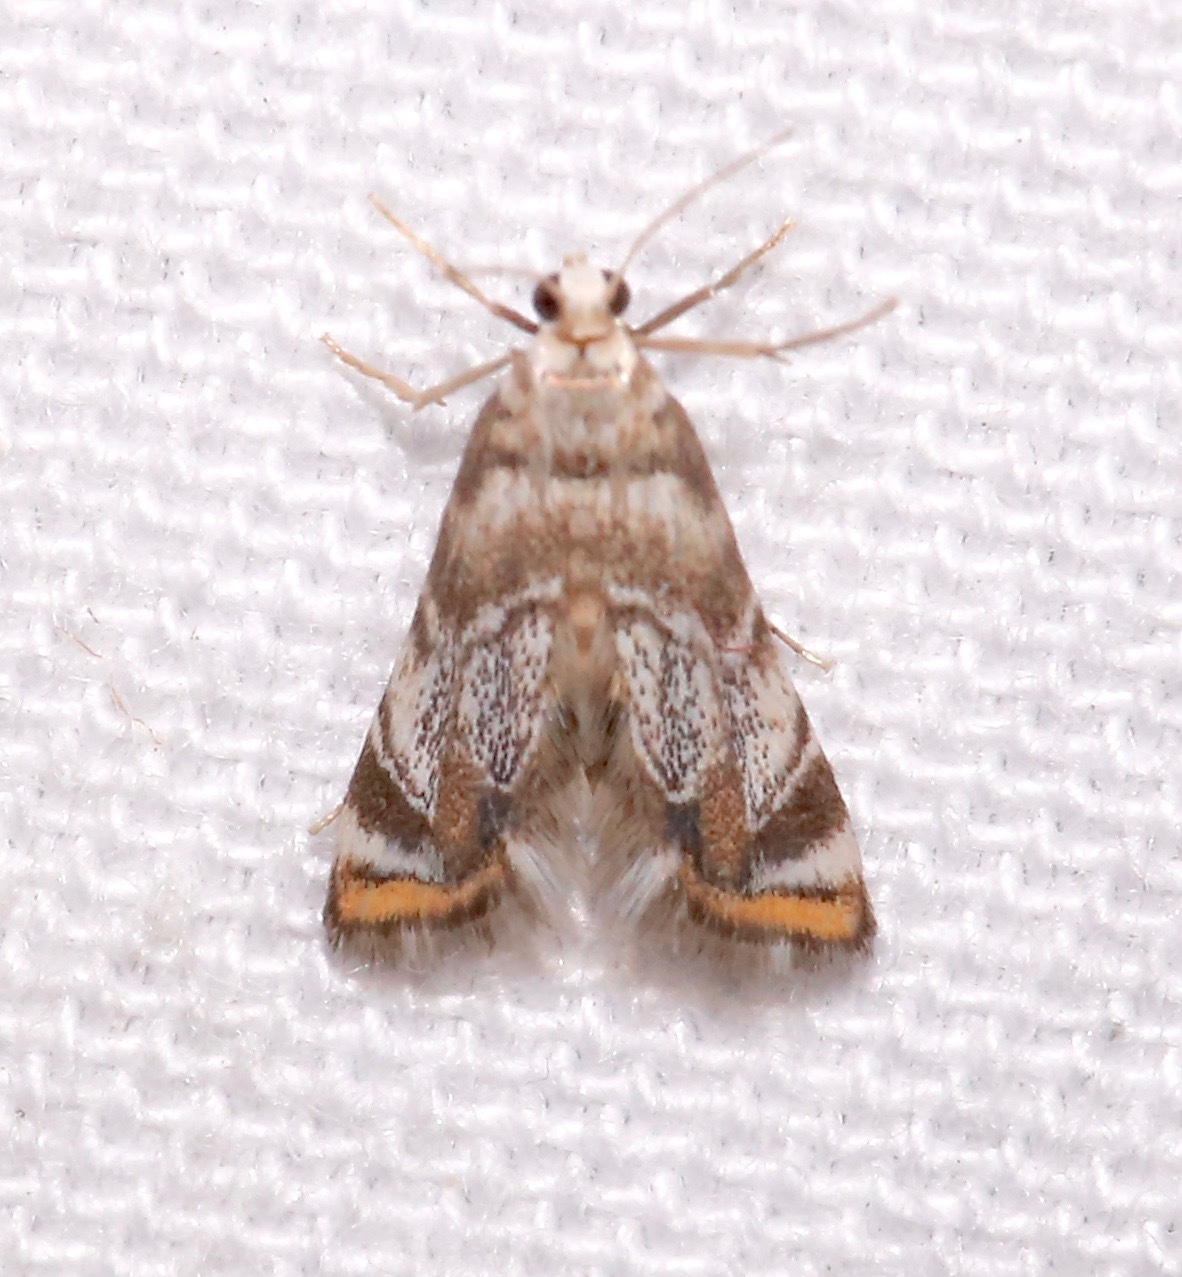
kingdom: Animalia
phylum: Arthropoda
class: Insecta
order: Lepidoptera
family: Crambidae
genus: Eoparargyractis
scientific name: Eoparargyractis irroratalis
